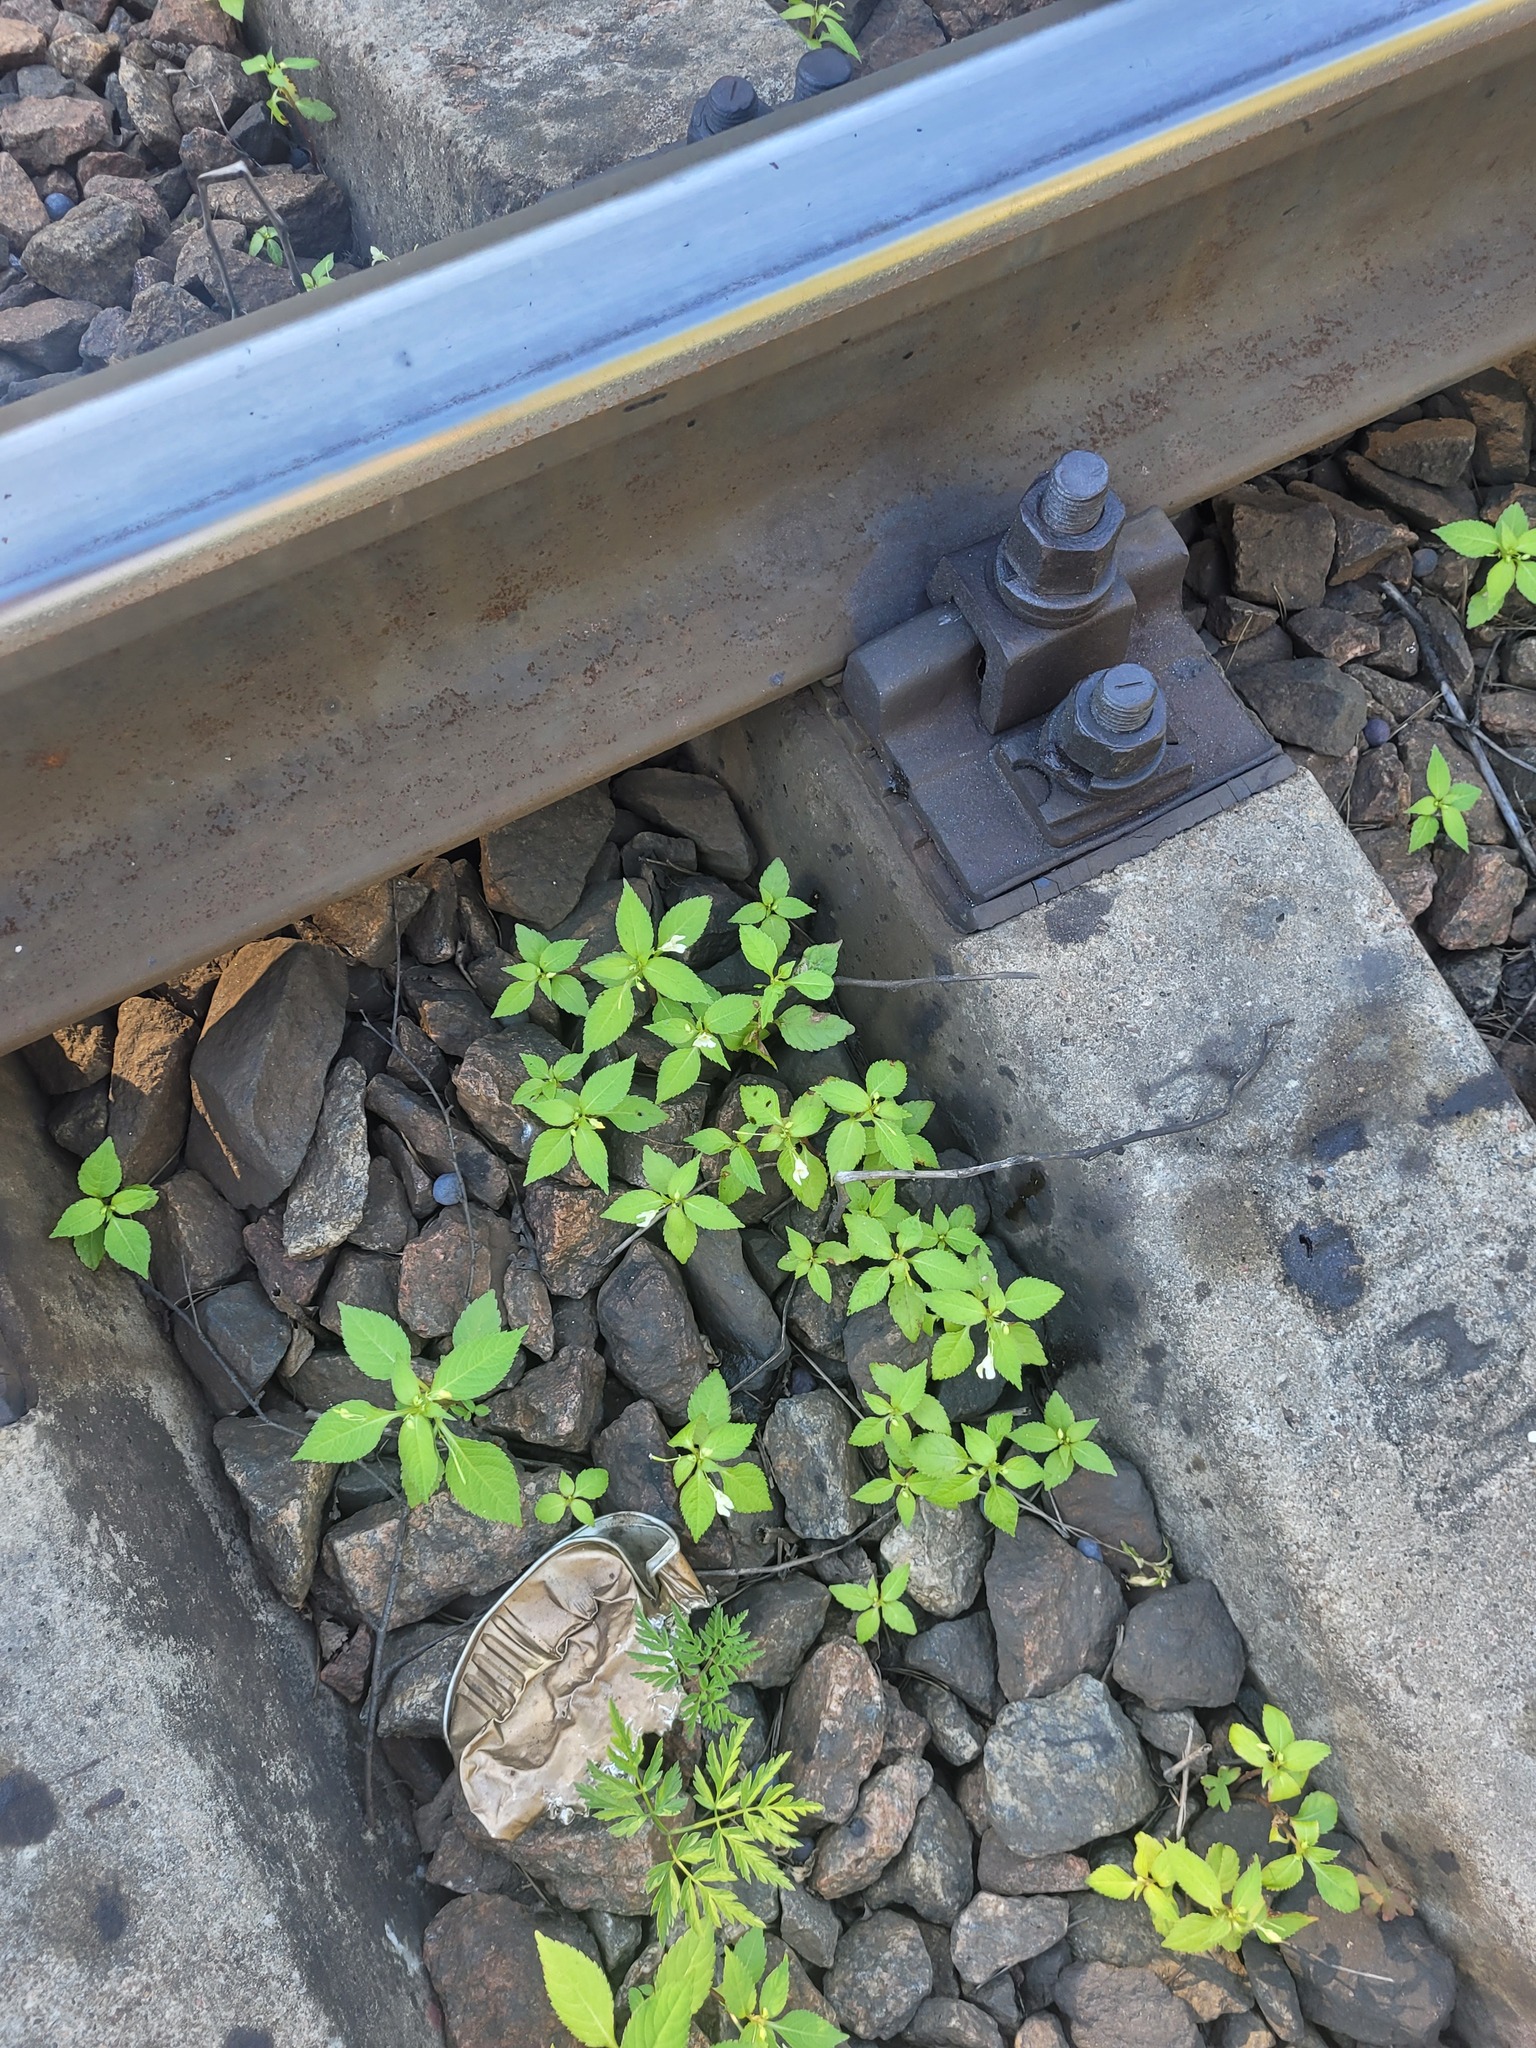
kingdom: Plantae
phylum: Tracheophyta
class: Magnoliopsida
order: Ericales
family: Balsaminaceae
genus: Impatiens
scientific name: Impatiens parviflora
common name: Small balsam
